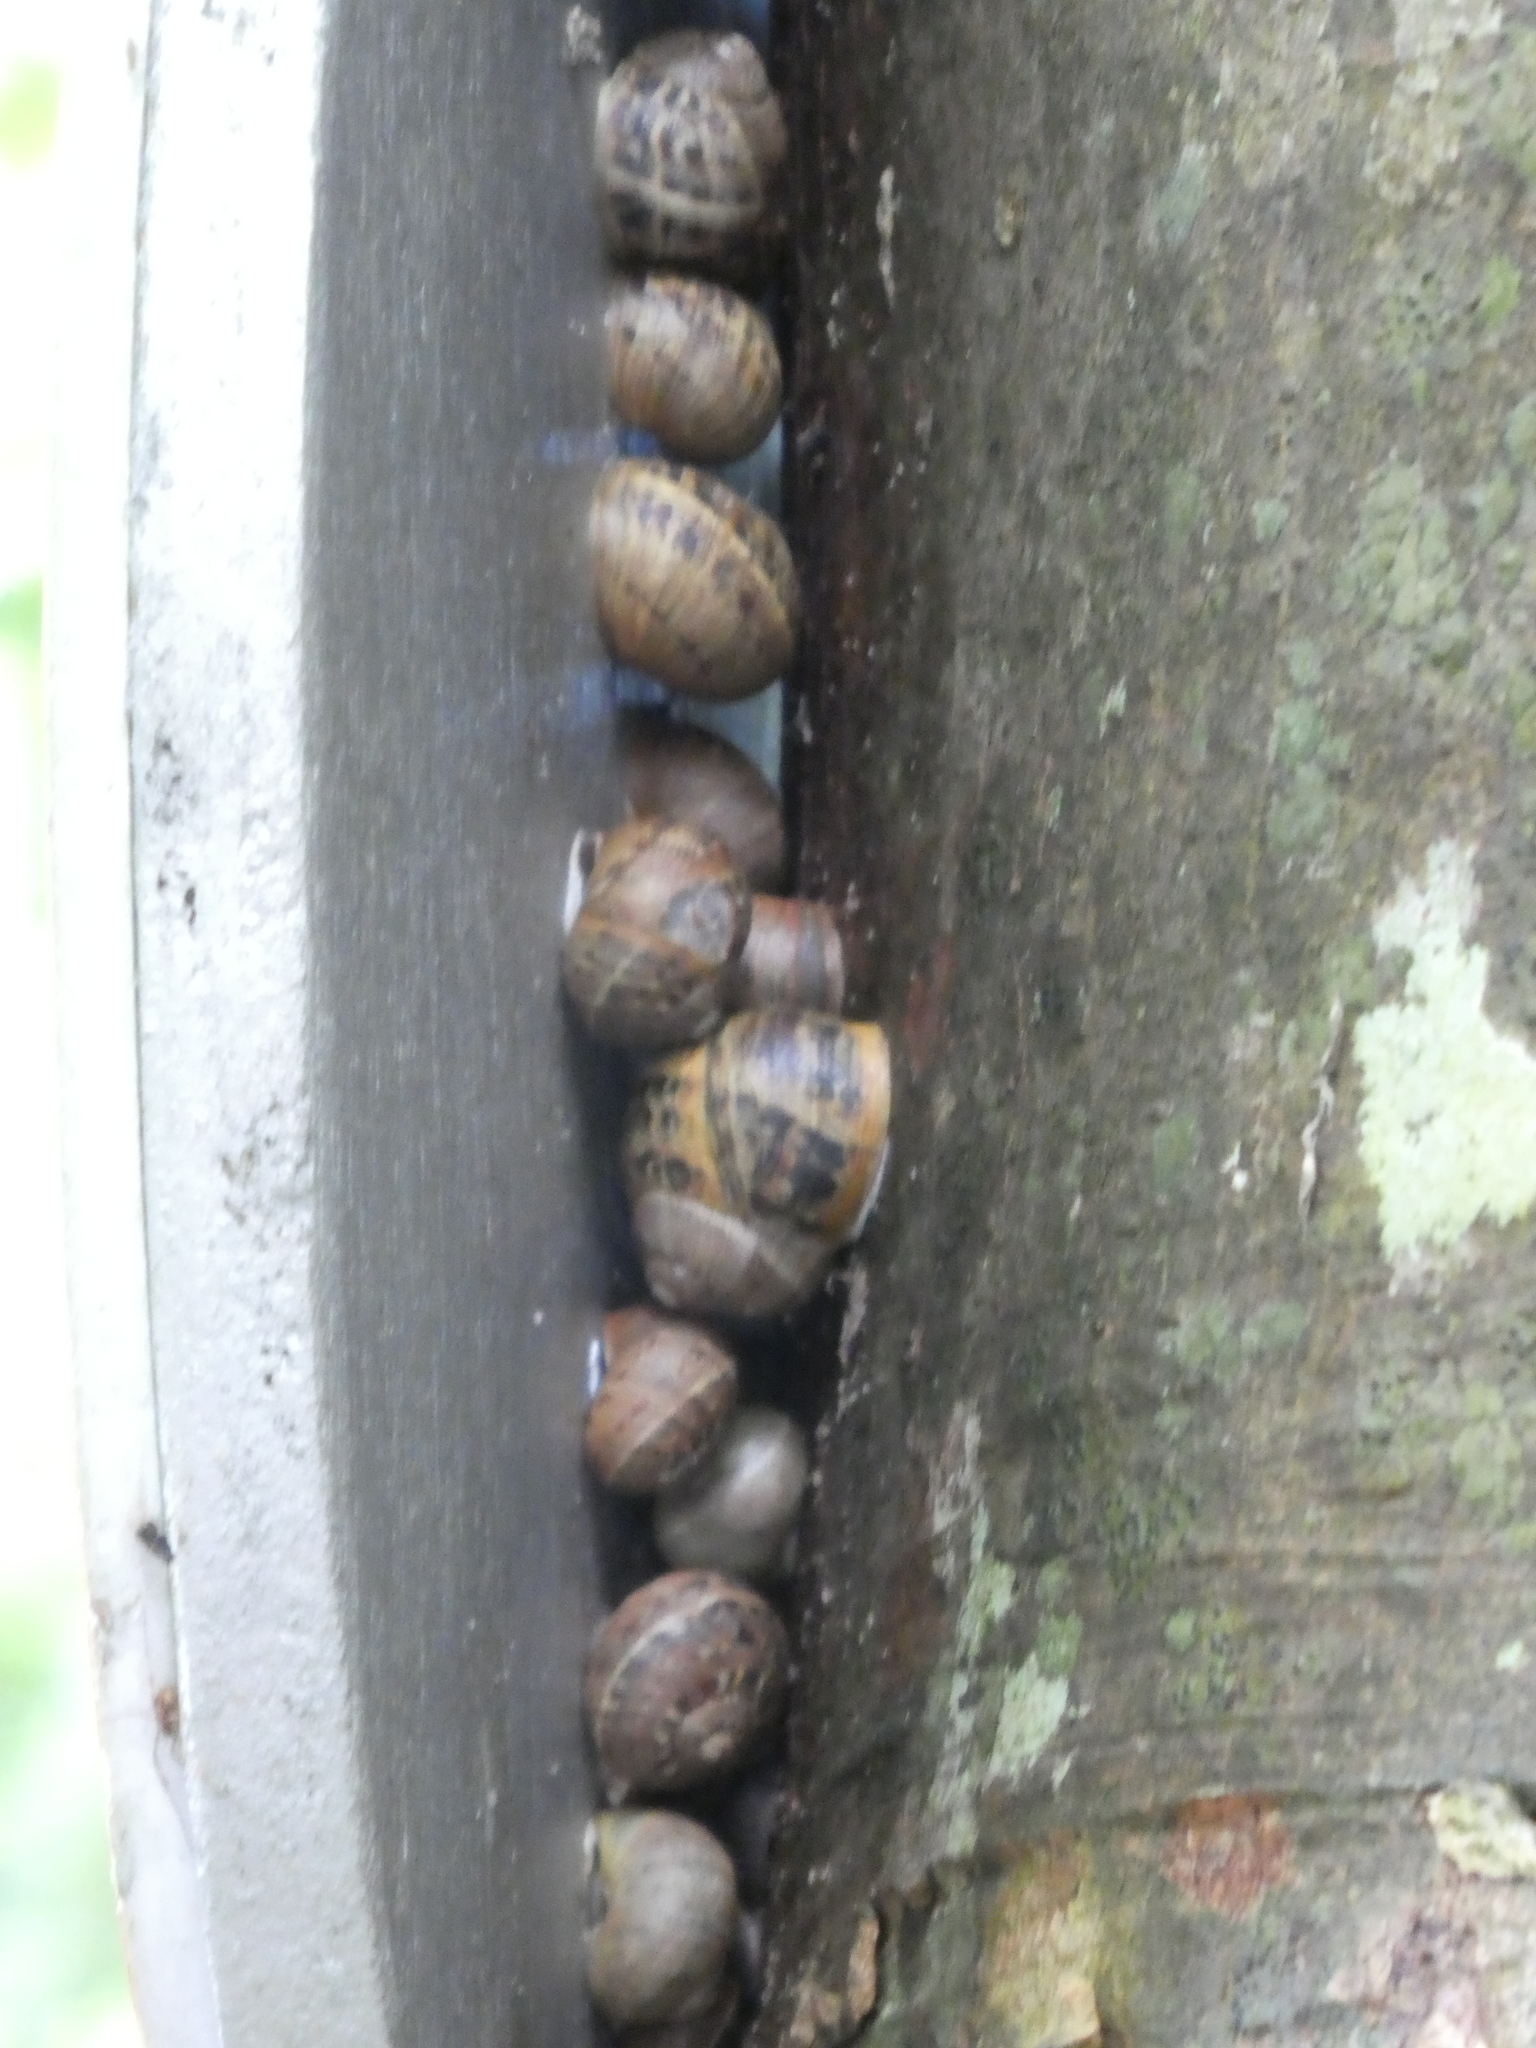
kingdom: Animalia
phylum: Mollusca
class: Gastropoda
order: Stylommatophora
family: Helicidae
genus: Cornu
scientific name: Cornu aspersum
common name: Brown garden snail
